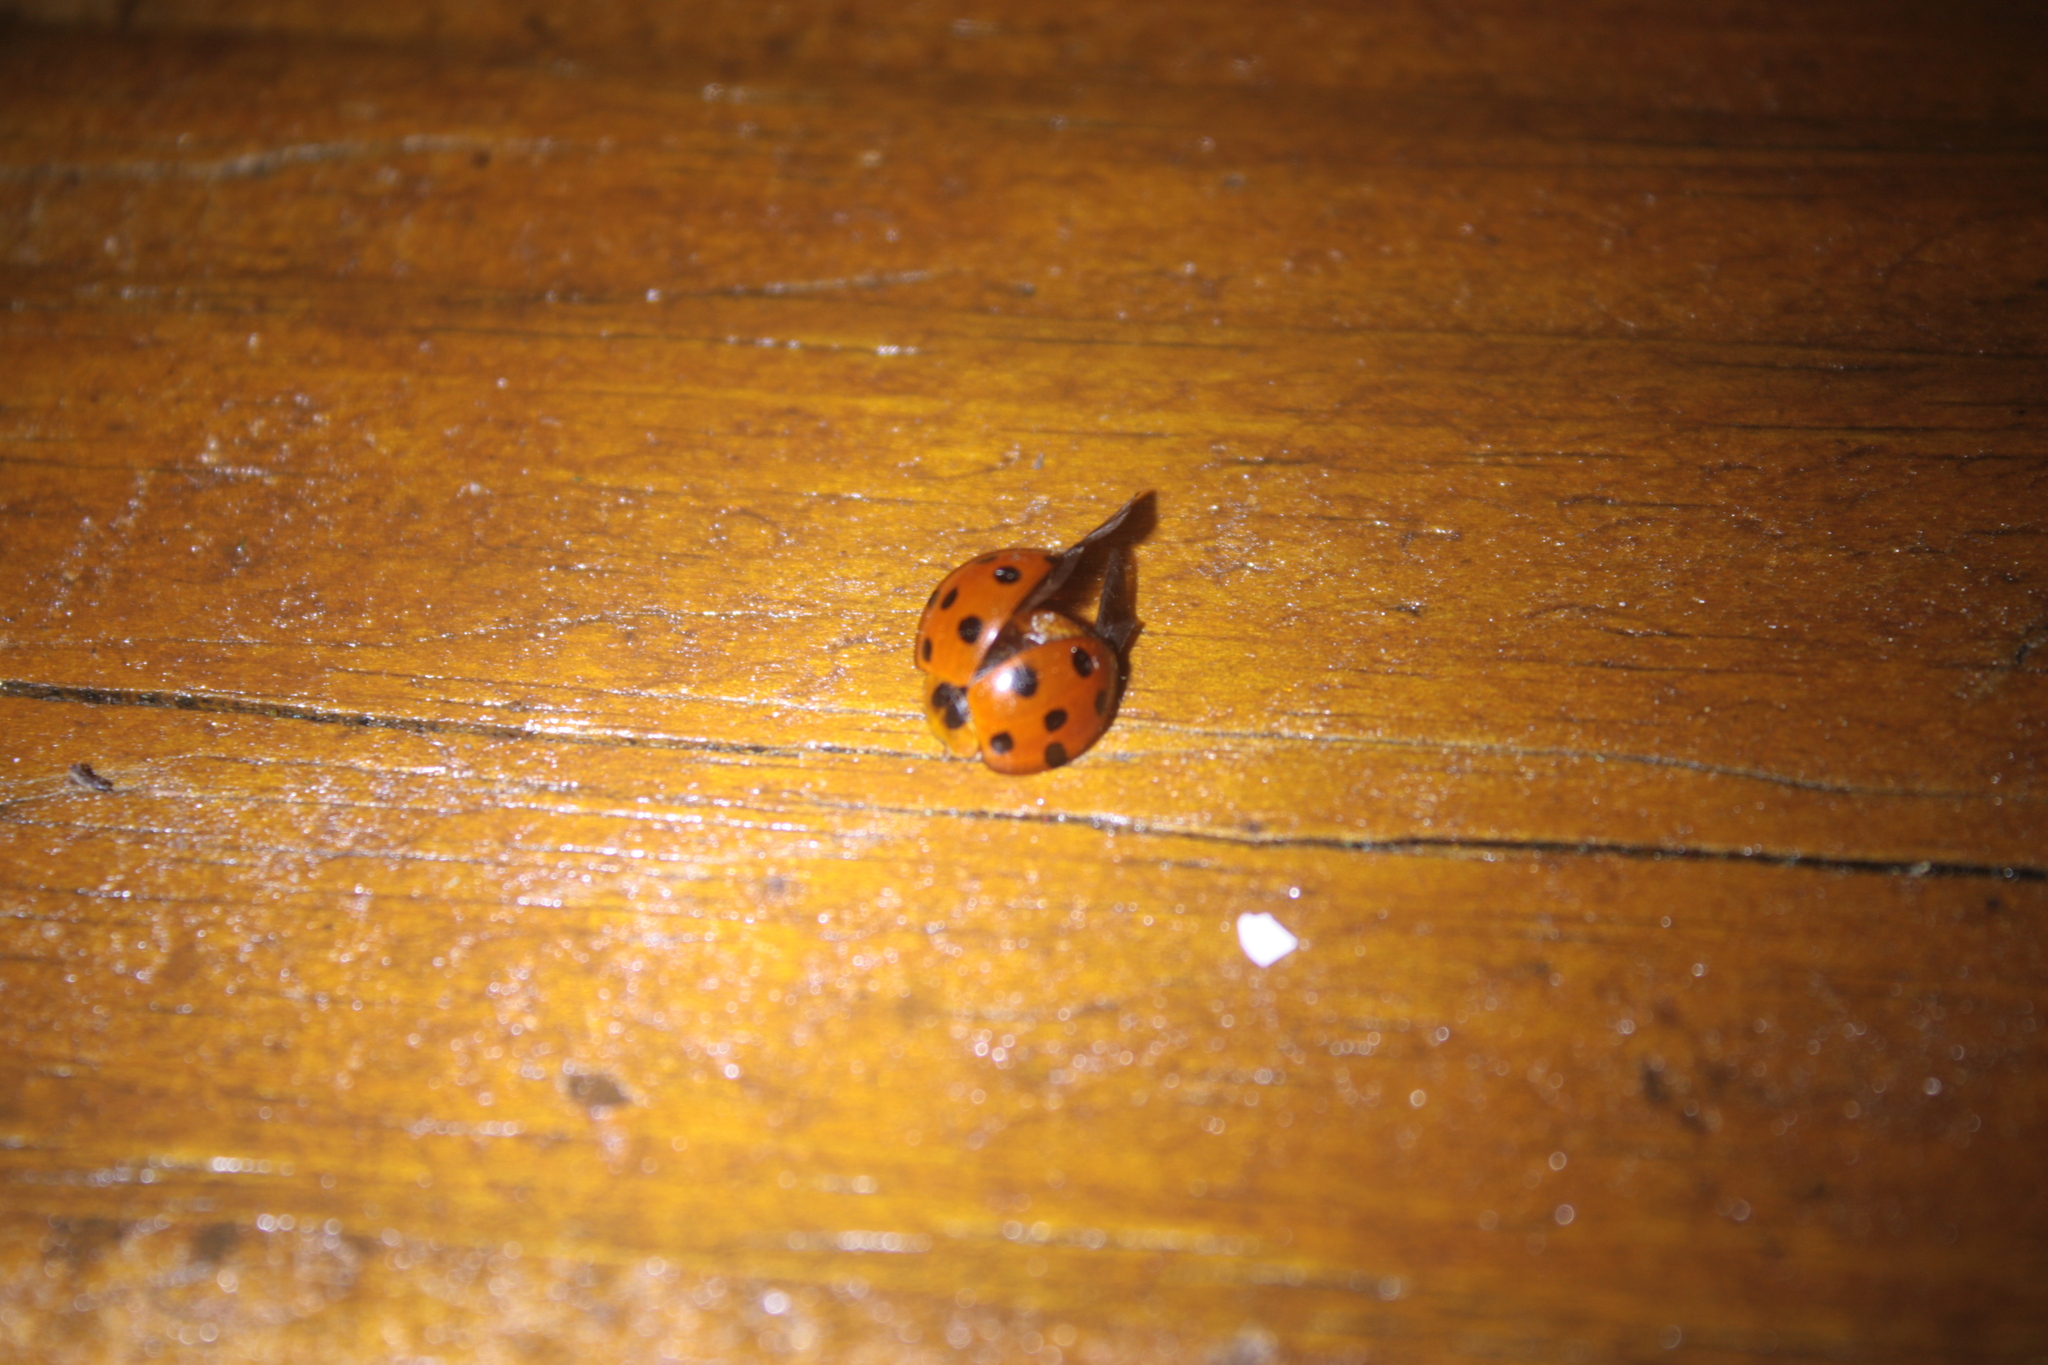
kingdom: Animalia
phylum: Arthropoda
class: Insecta
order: Coleoptera
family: Coccinellidae
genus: Harmonia
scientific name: Harmonia dimidiata
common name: Ladybird beetle
